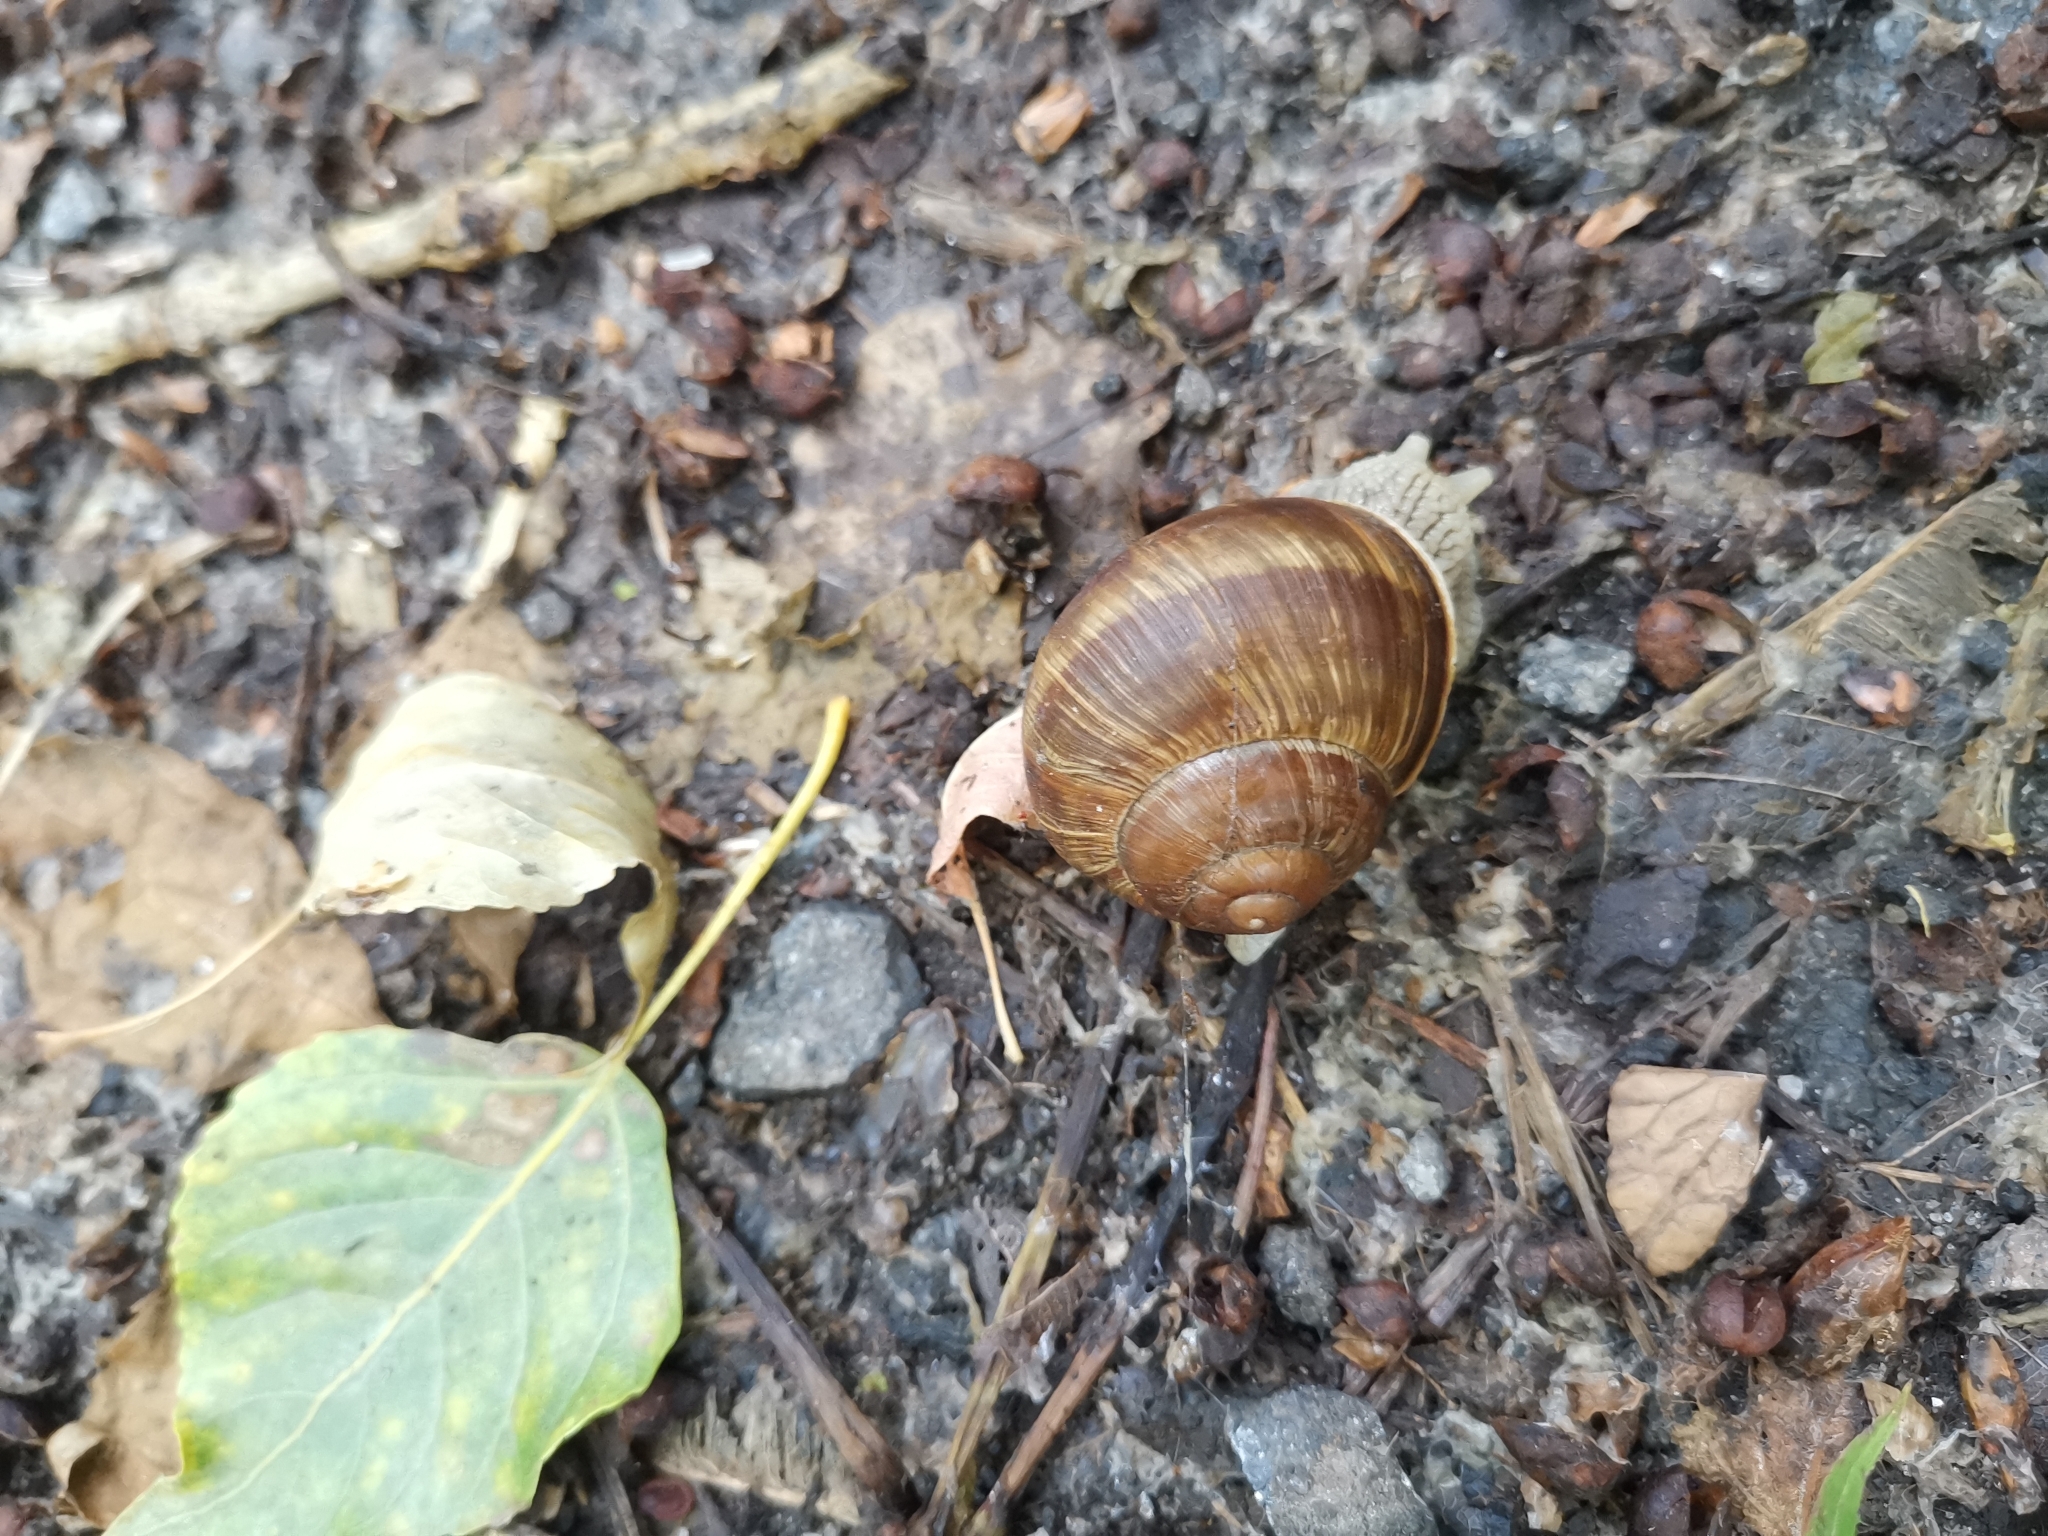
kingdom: Animalia
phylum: Mollusca
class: Gastropoda
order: Stylommatophora
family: Helicidae
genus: Helix
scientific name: Helix pomatia
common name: Roman snail
